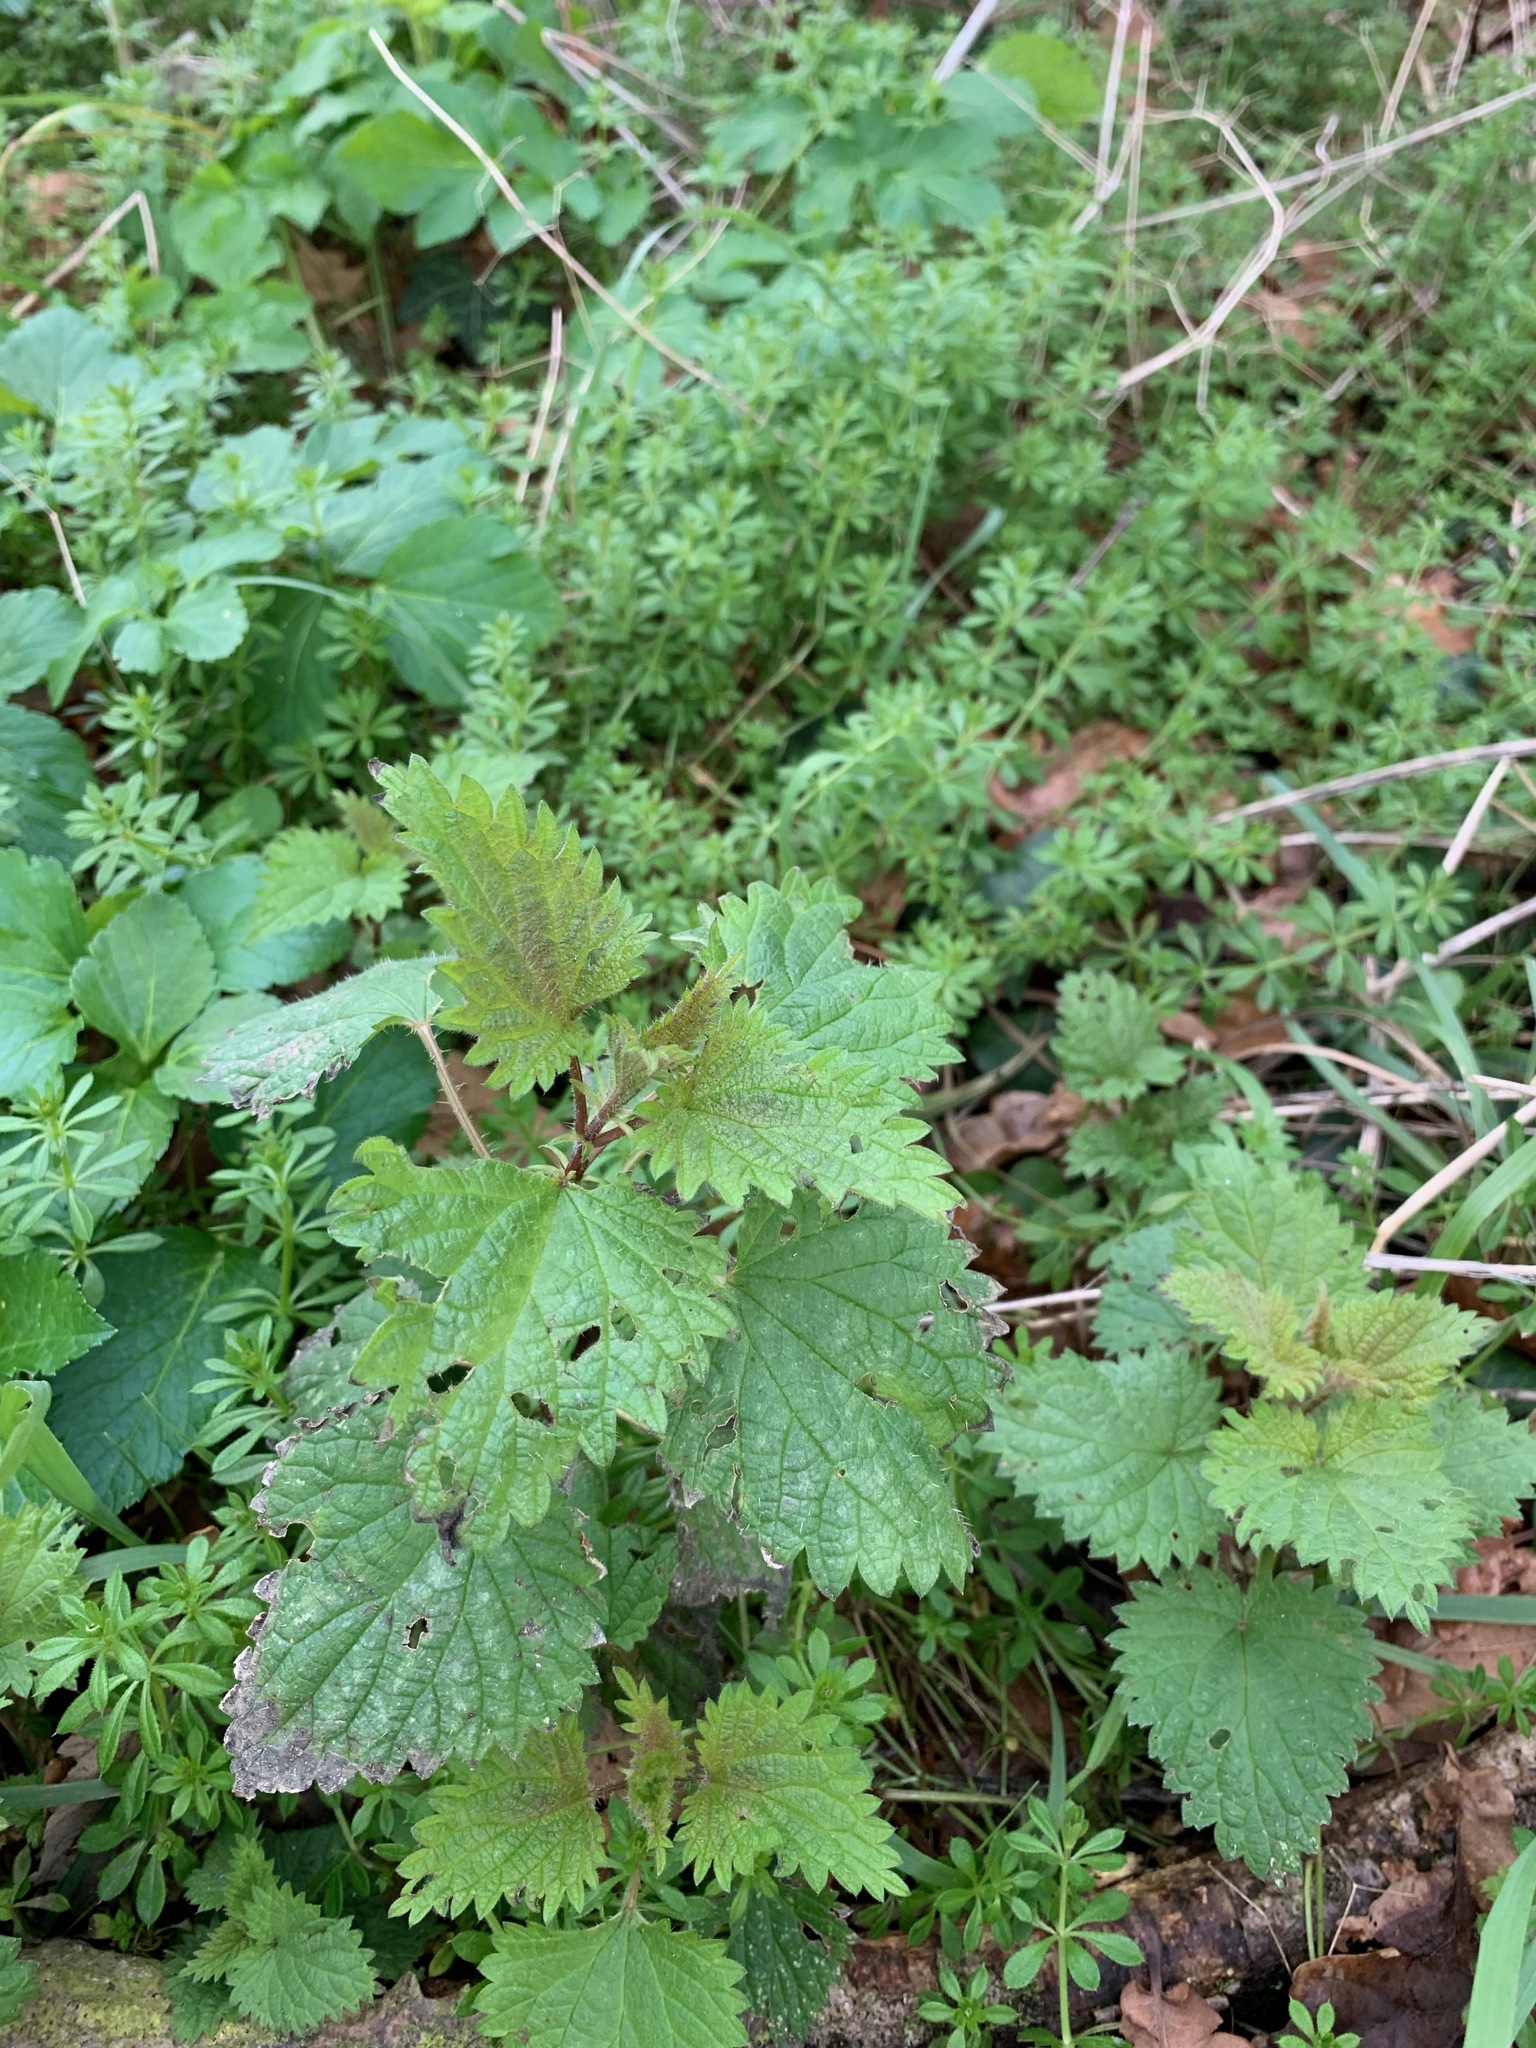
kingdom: Plantae
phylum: Tracheophyta
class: Magnoliopsida
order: Rosales
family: Urticaceae
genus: Urtica
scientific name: Urtica dioica
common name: Common nettle
